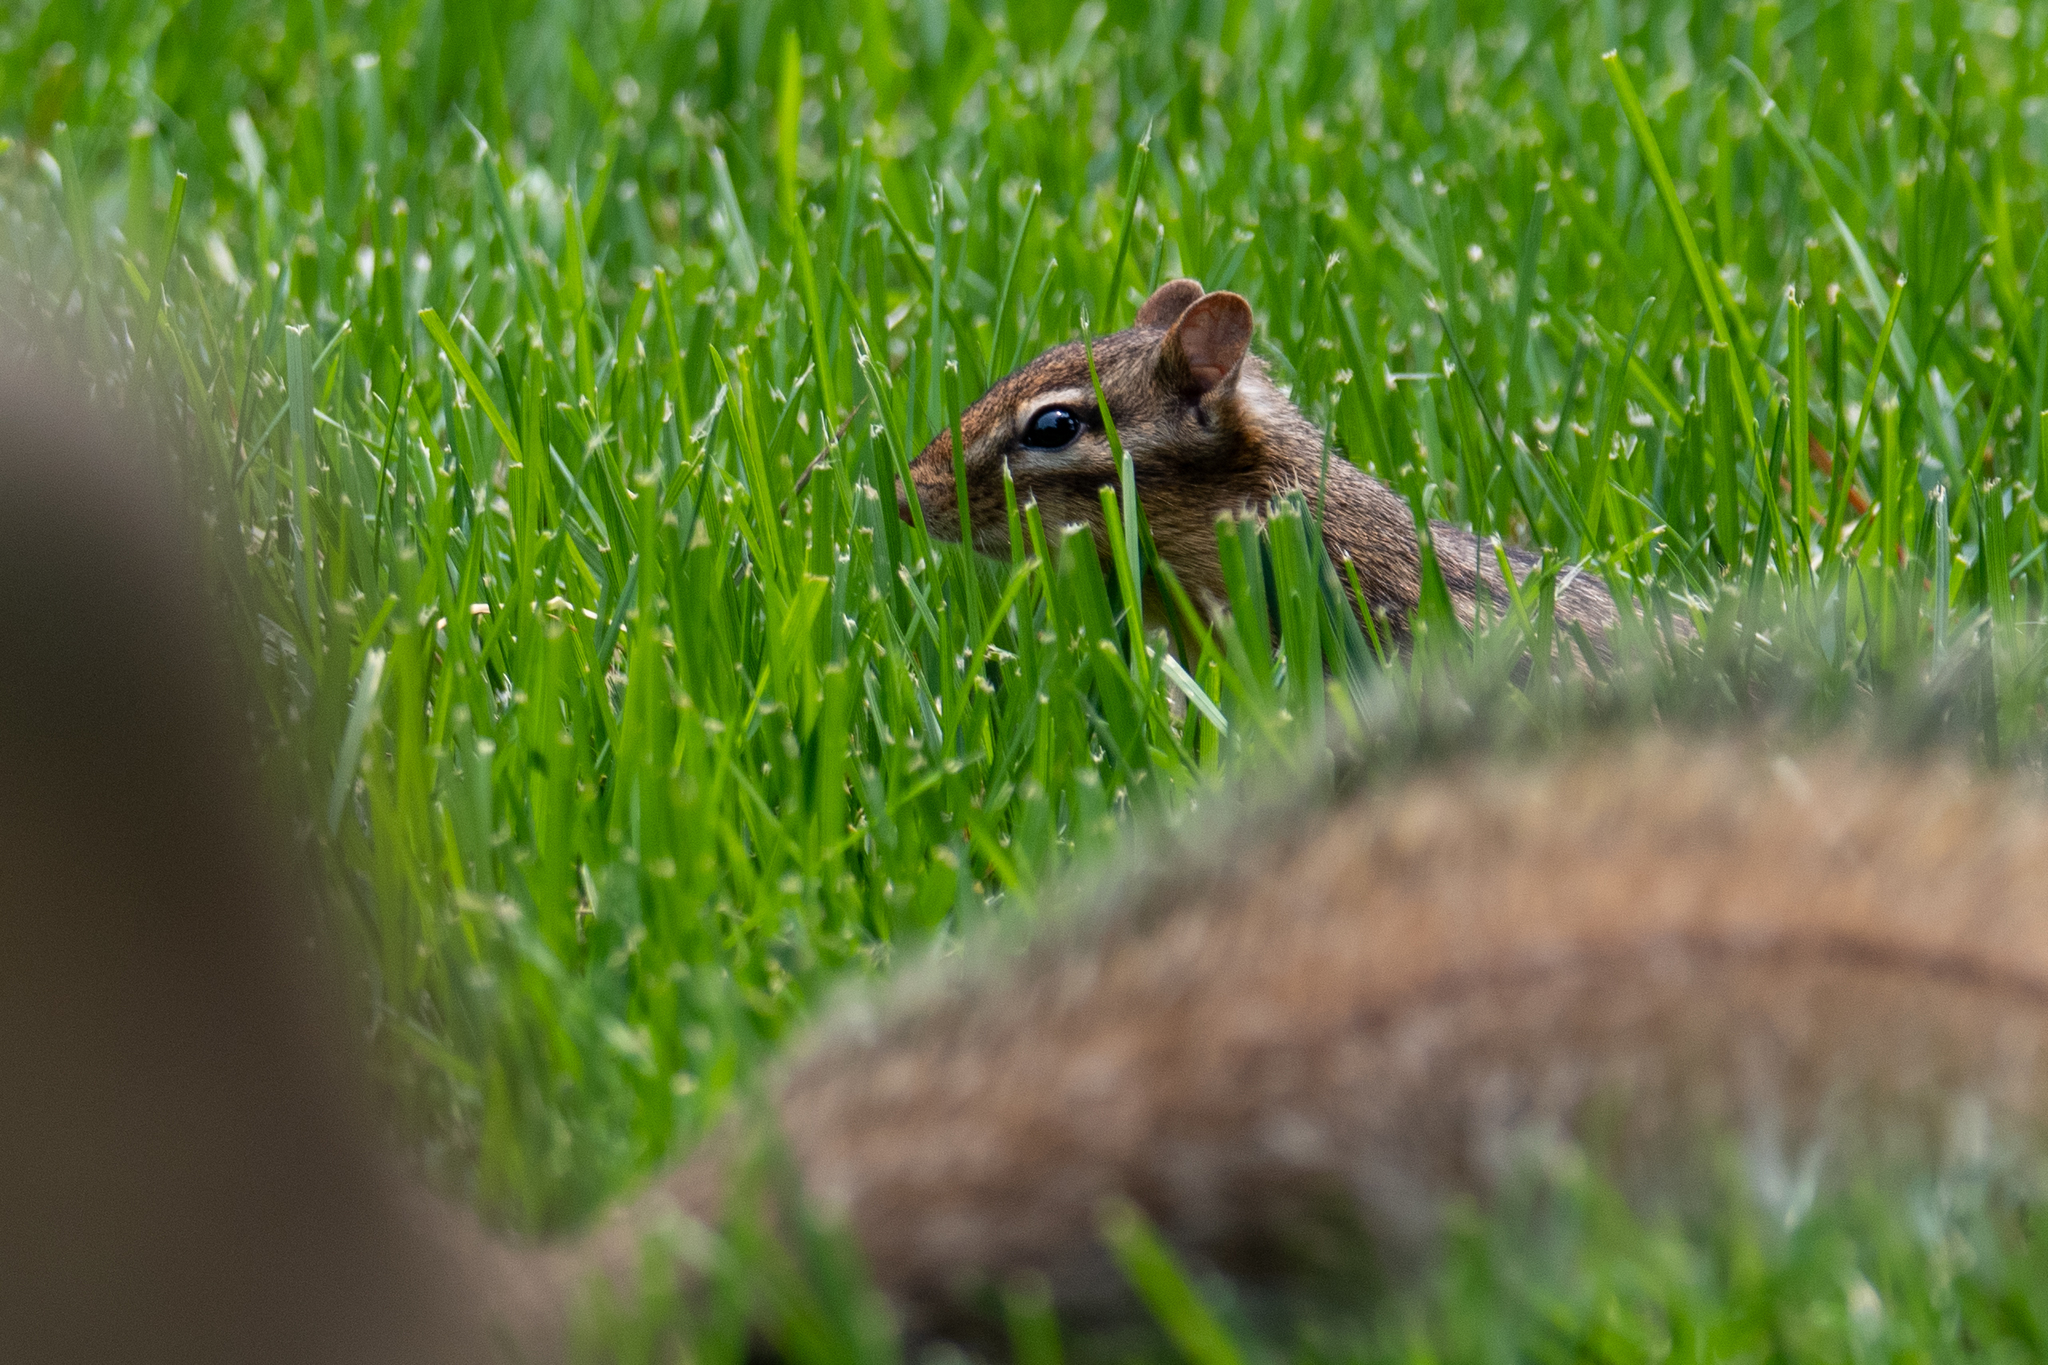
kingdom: Animalia
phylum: Chordata
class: Mammalia
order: Rodentia
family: Sciuridae
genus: Tamias
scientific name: Tamias striatus
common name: Eastern chipmunk
